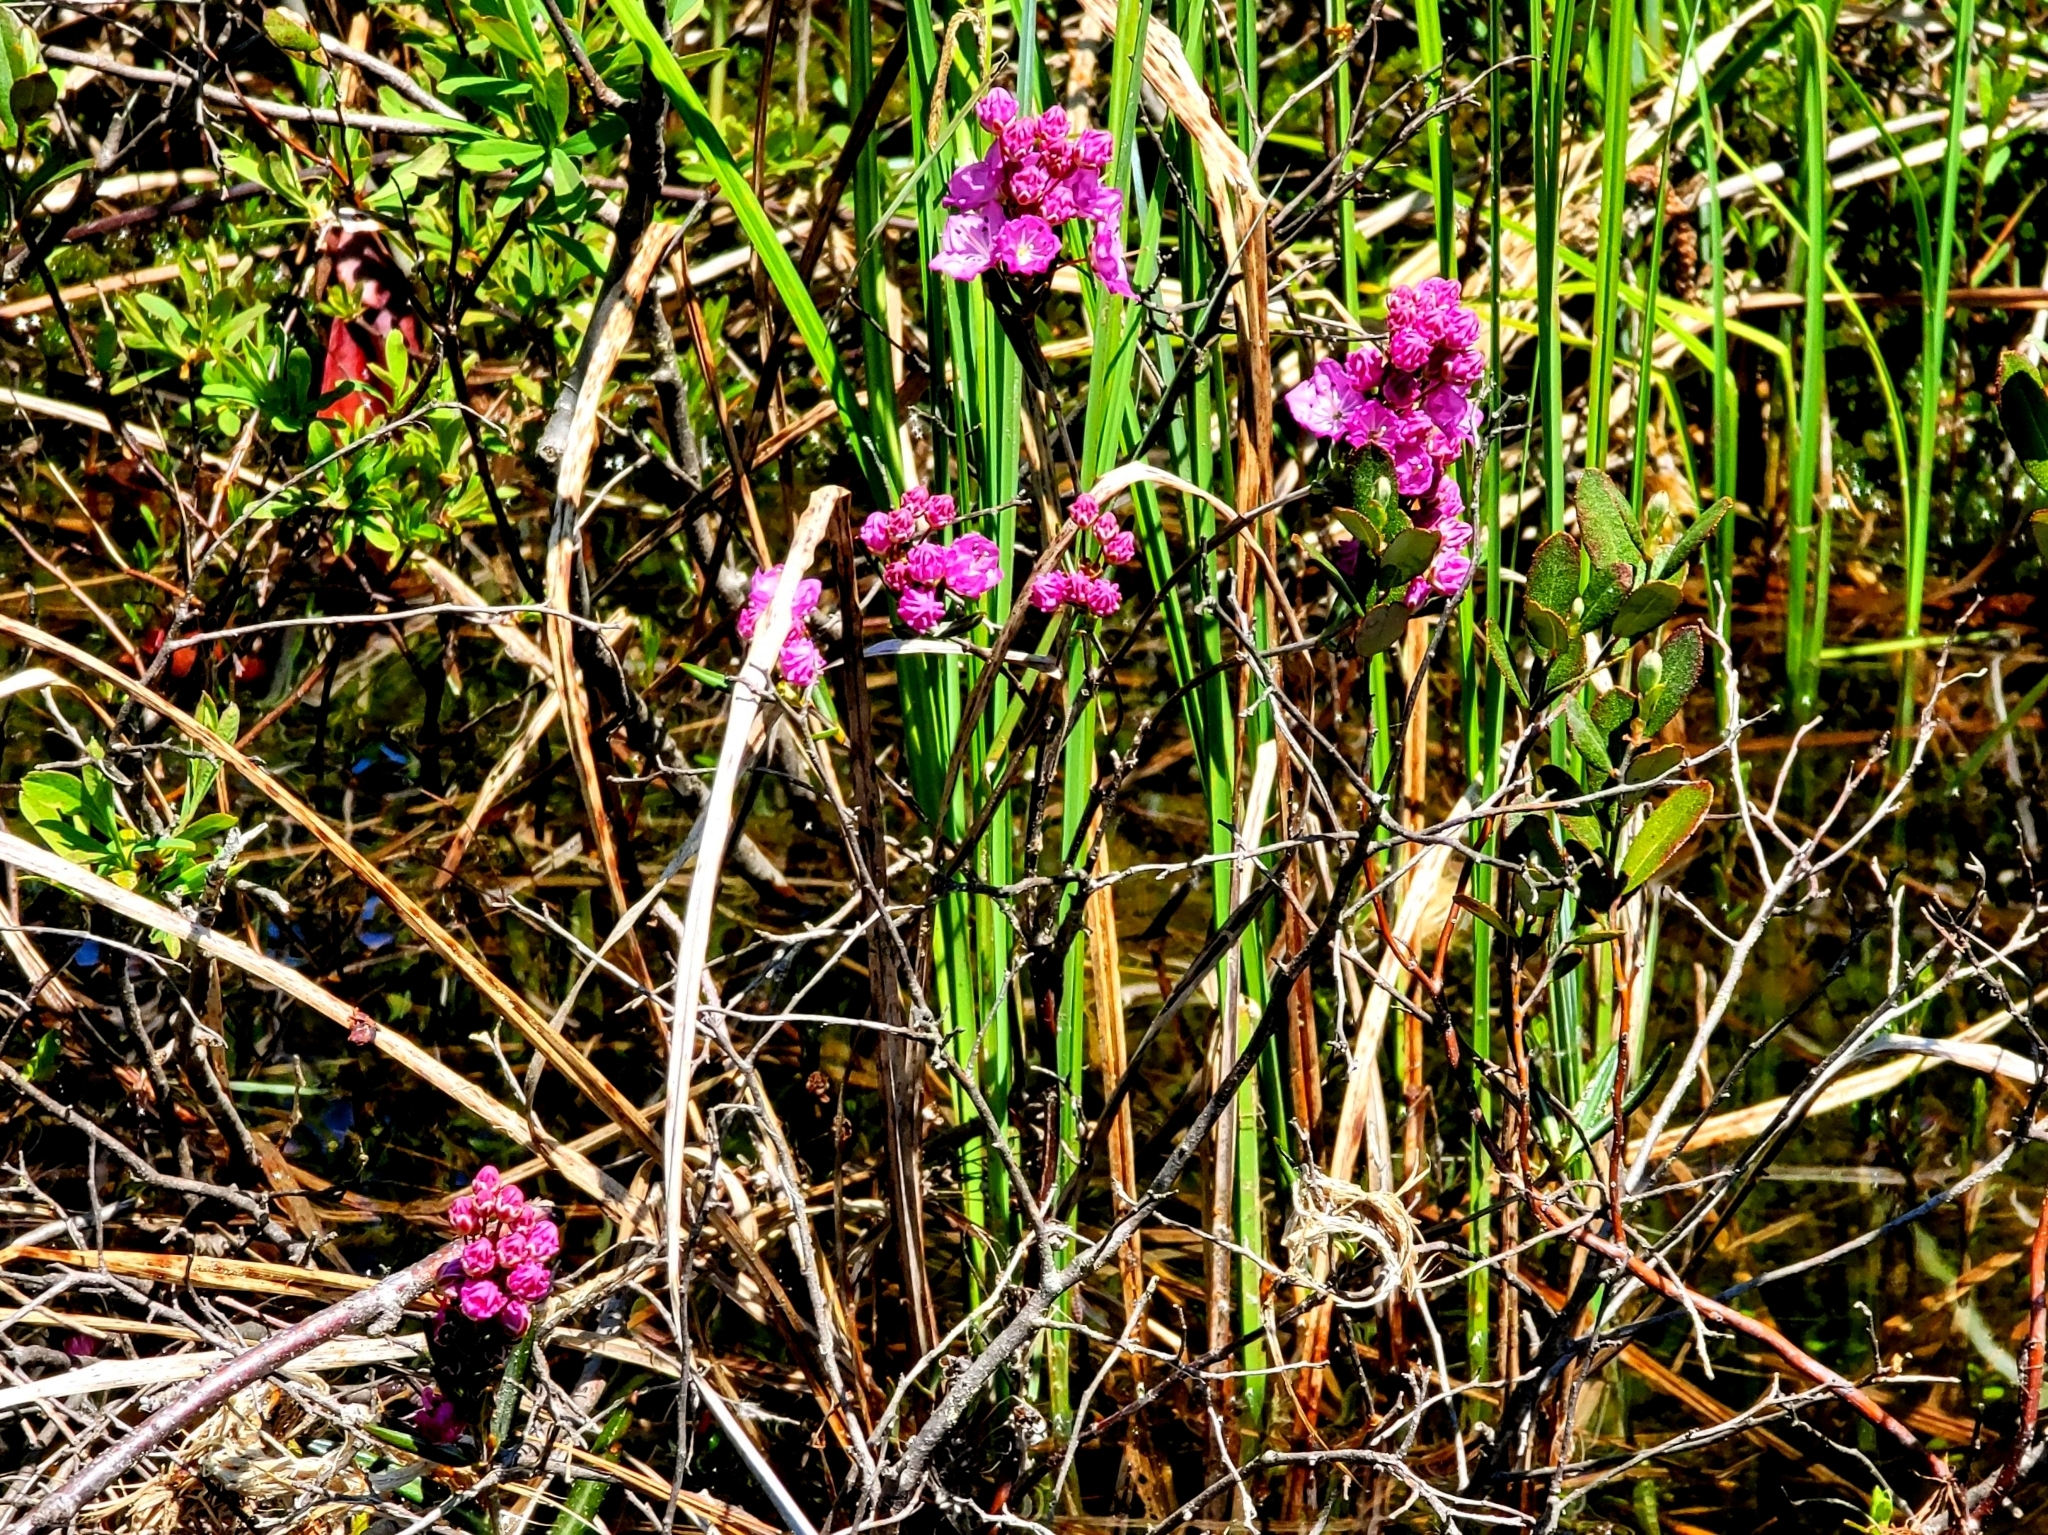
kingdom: Plantae
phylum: Tracheophyta
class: Magnoliopsida
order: Ericales
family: Ericaceae
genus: Kalmia
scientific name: Kalmia polifolia
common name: Bog-laurel
